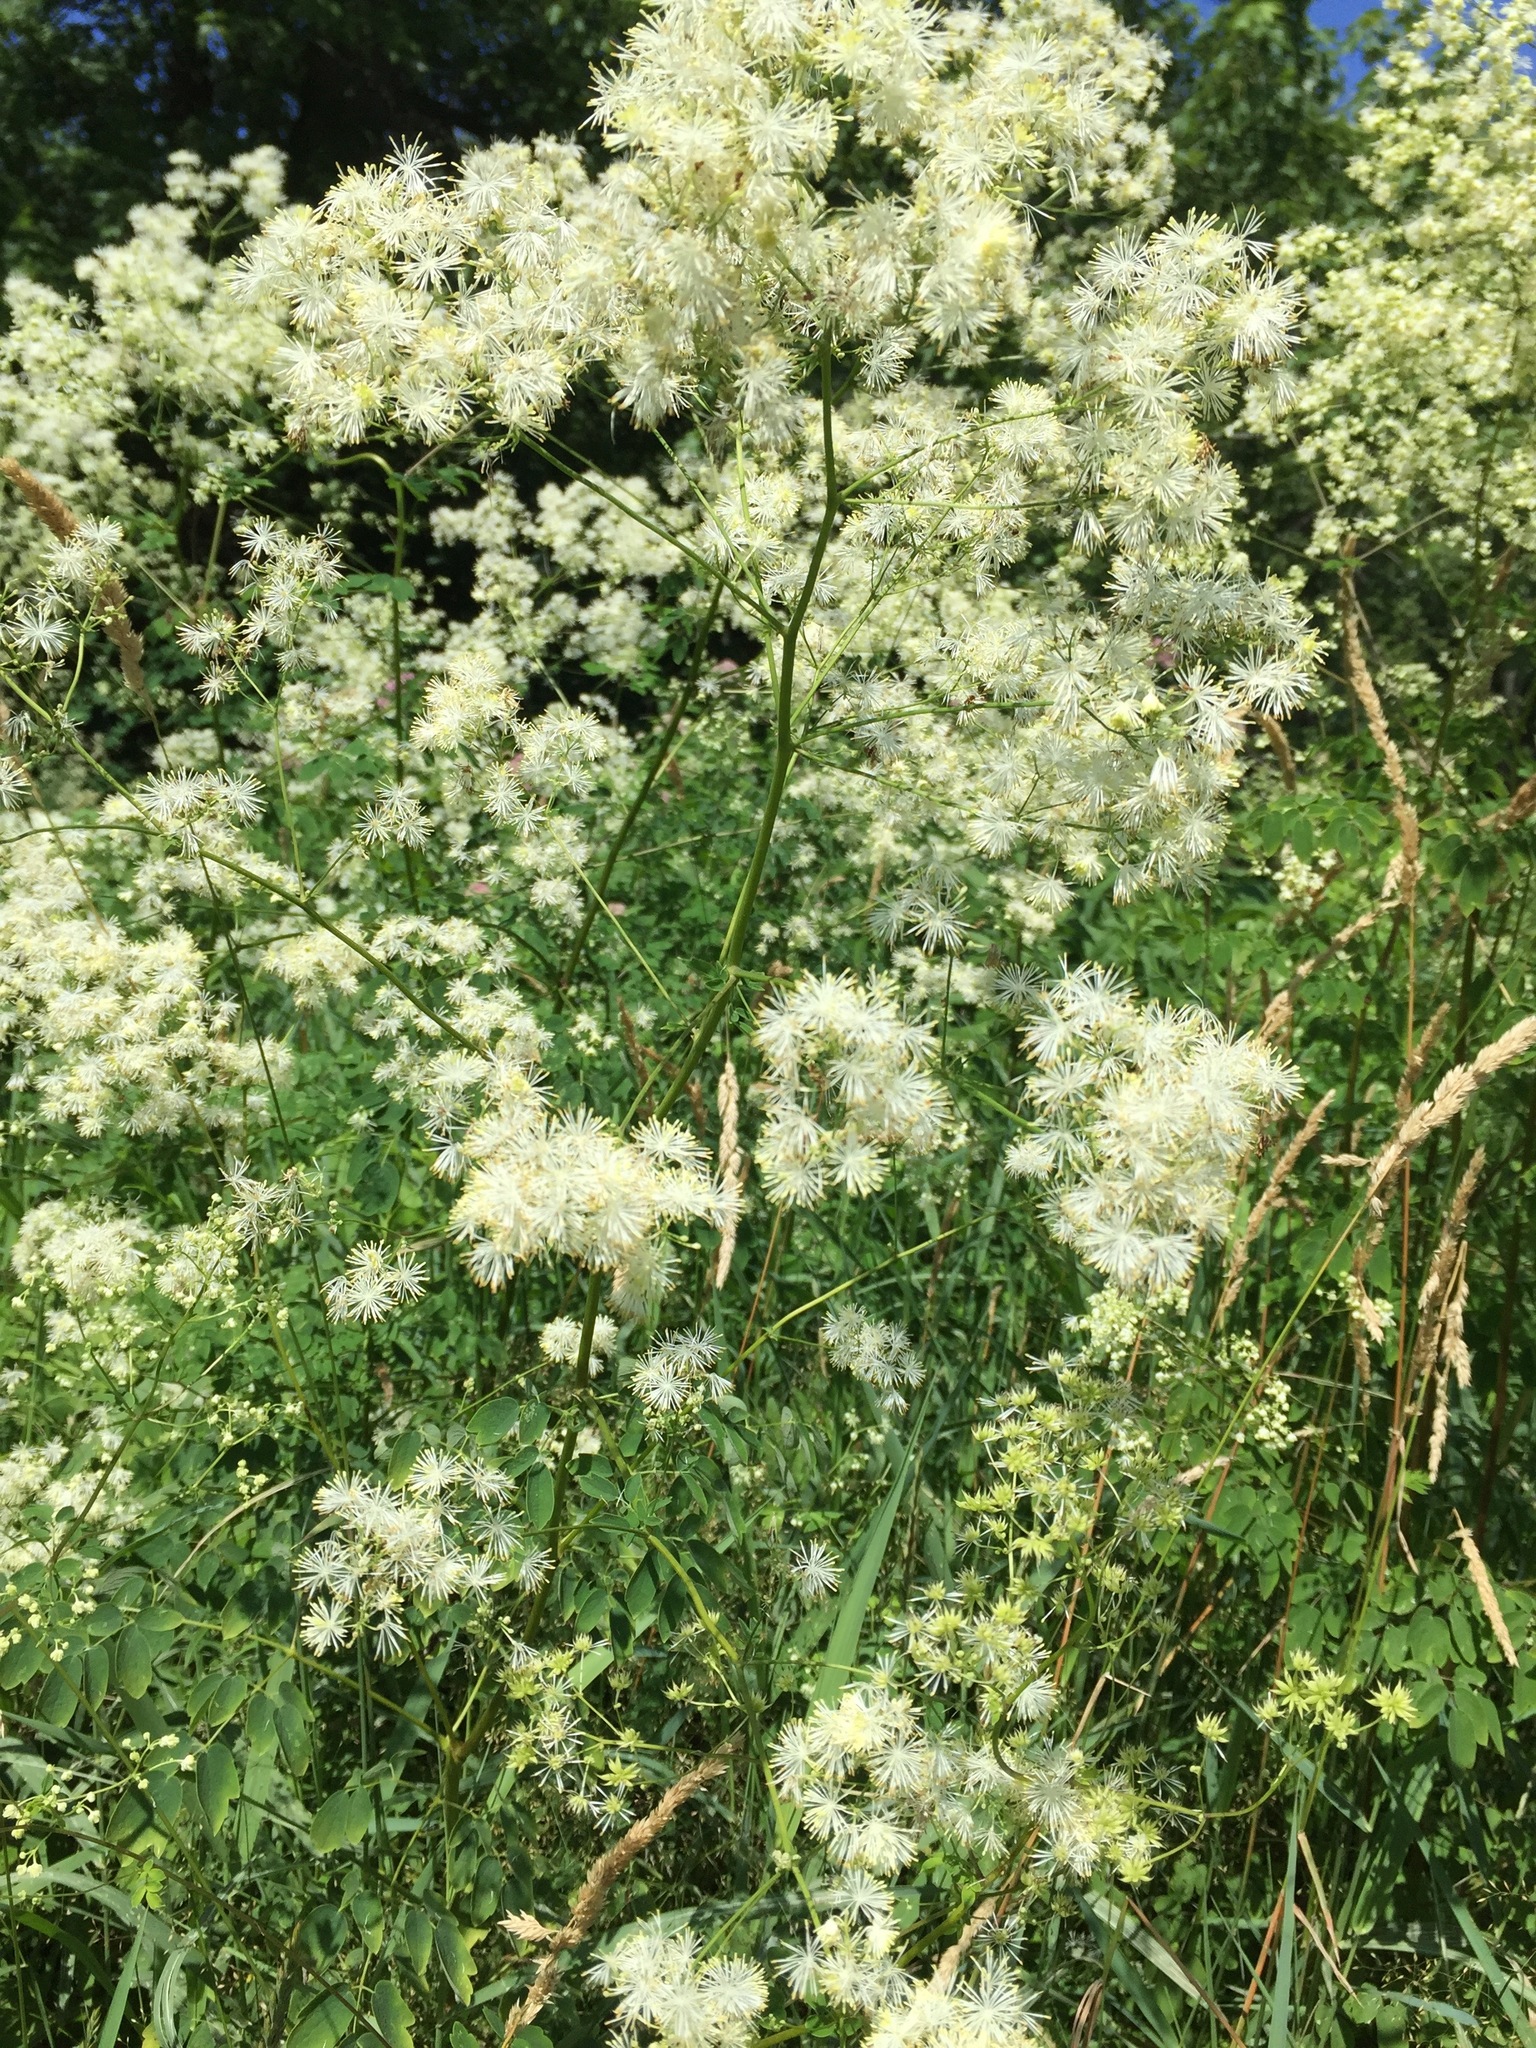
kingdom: Plantae
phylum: Tracheophyta
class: Magnoliopsida
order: Ranunculales
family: Ranunculaceae
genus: Thalictrum
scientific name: Thalictrum pubescens
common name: King-of-the-meadow
